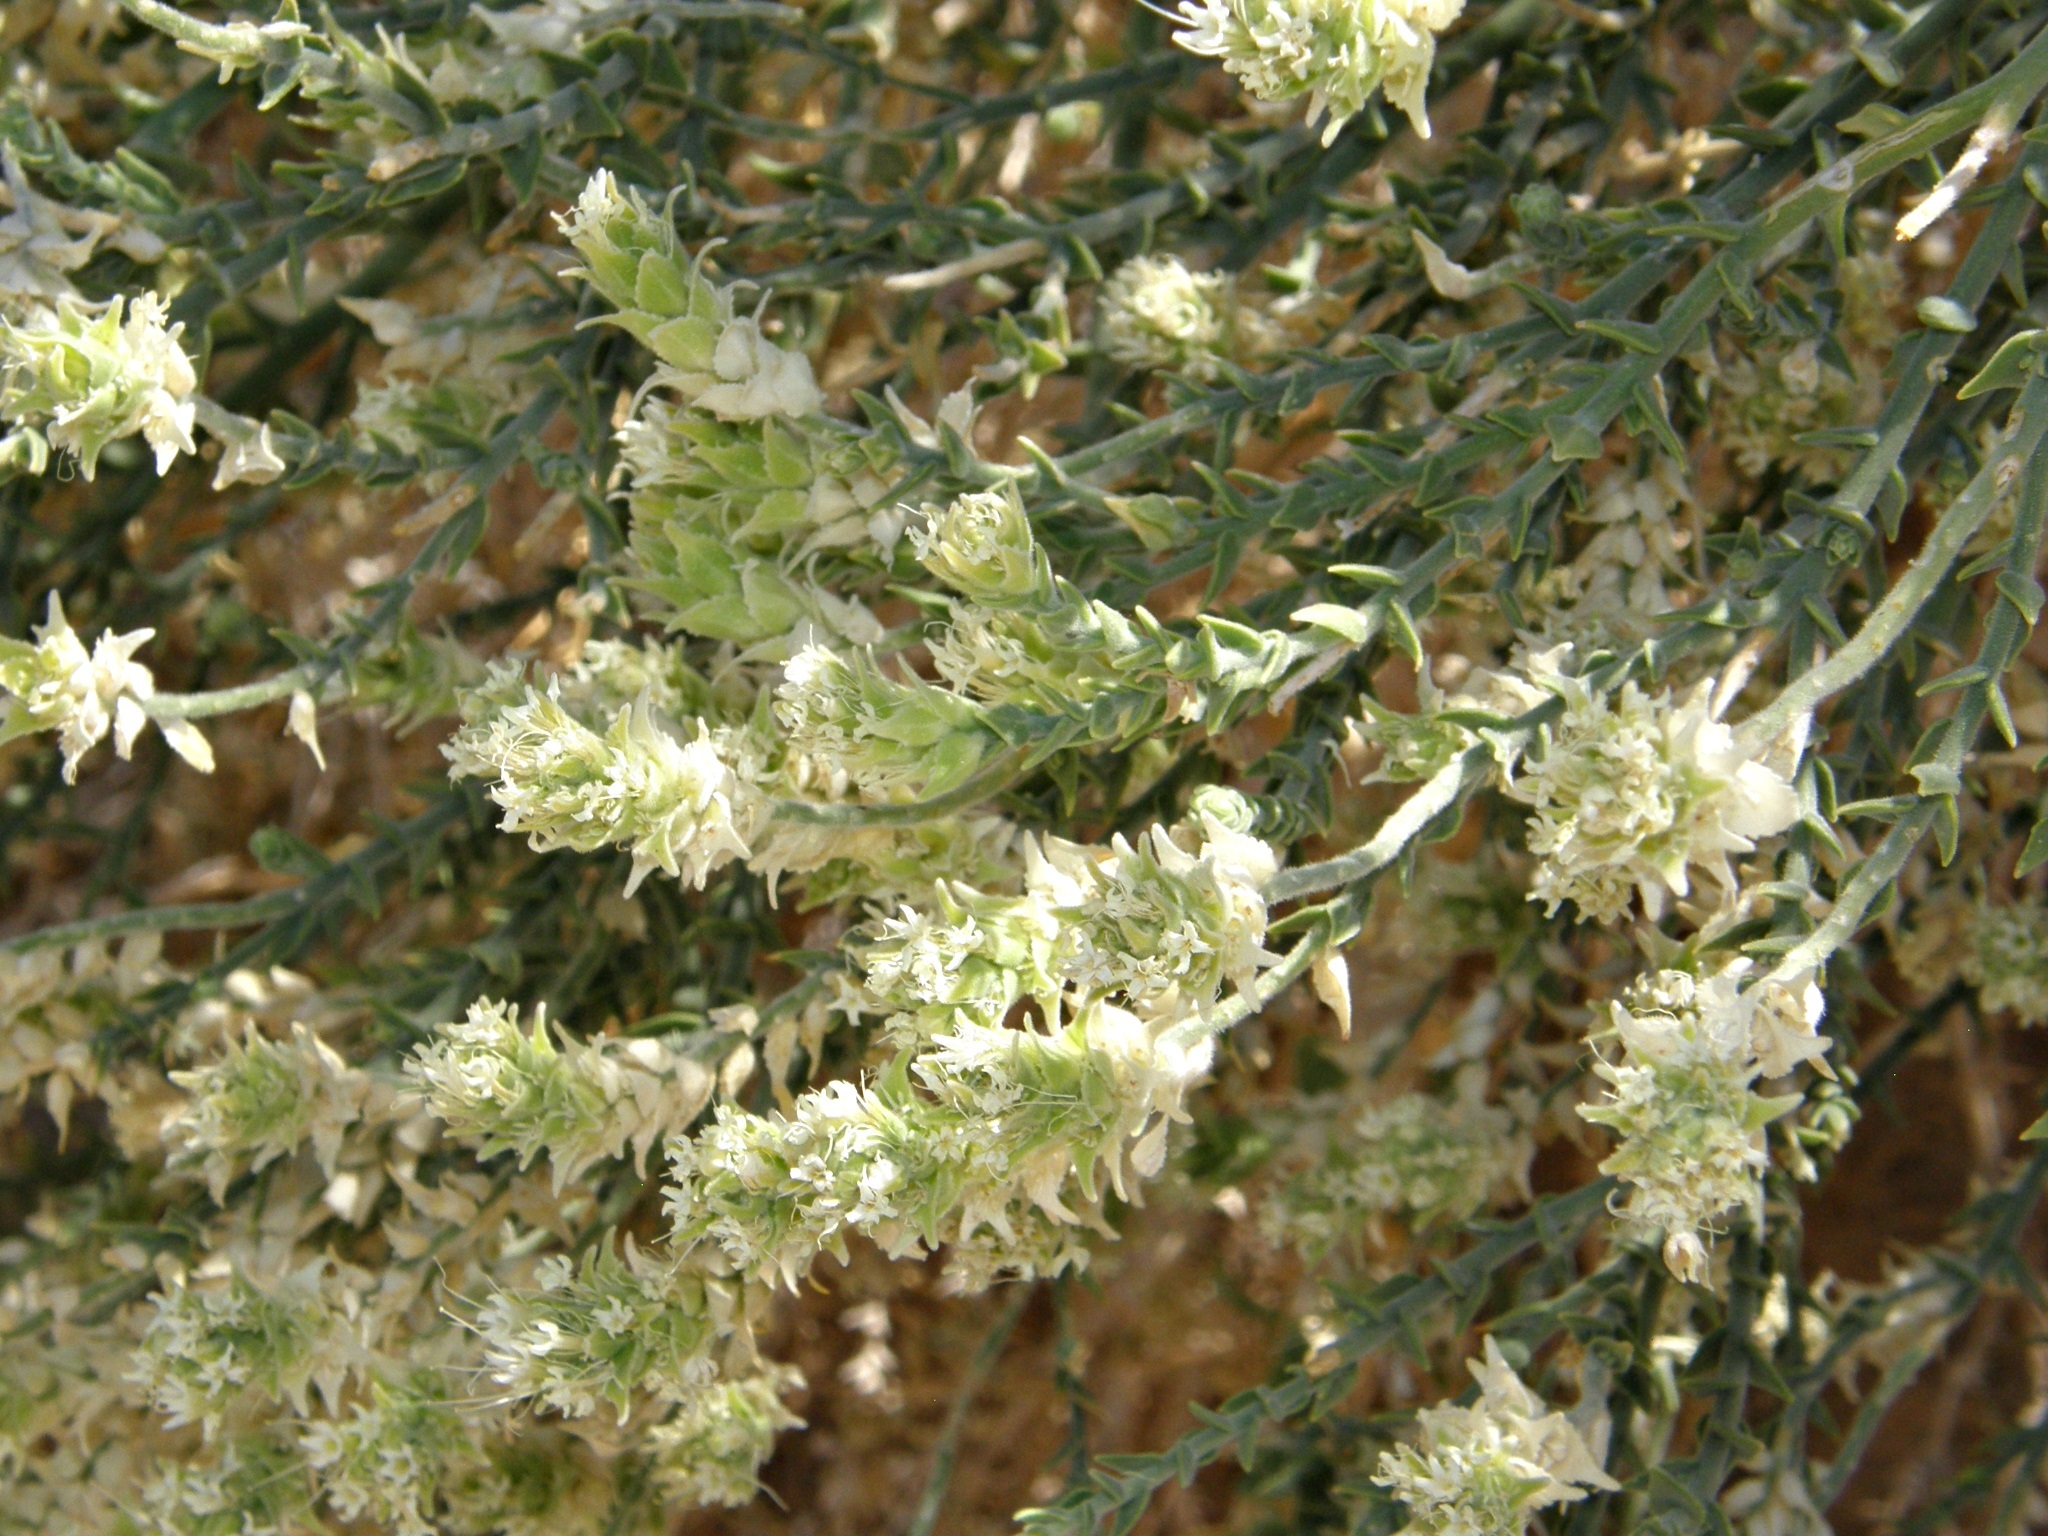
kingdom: Plantae
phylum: Tracheophyta
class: Magnoliopsida
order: Cornales
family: Loasaceae
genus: Petalonyx
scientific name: Petalonyx thurberi
